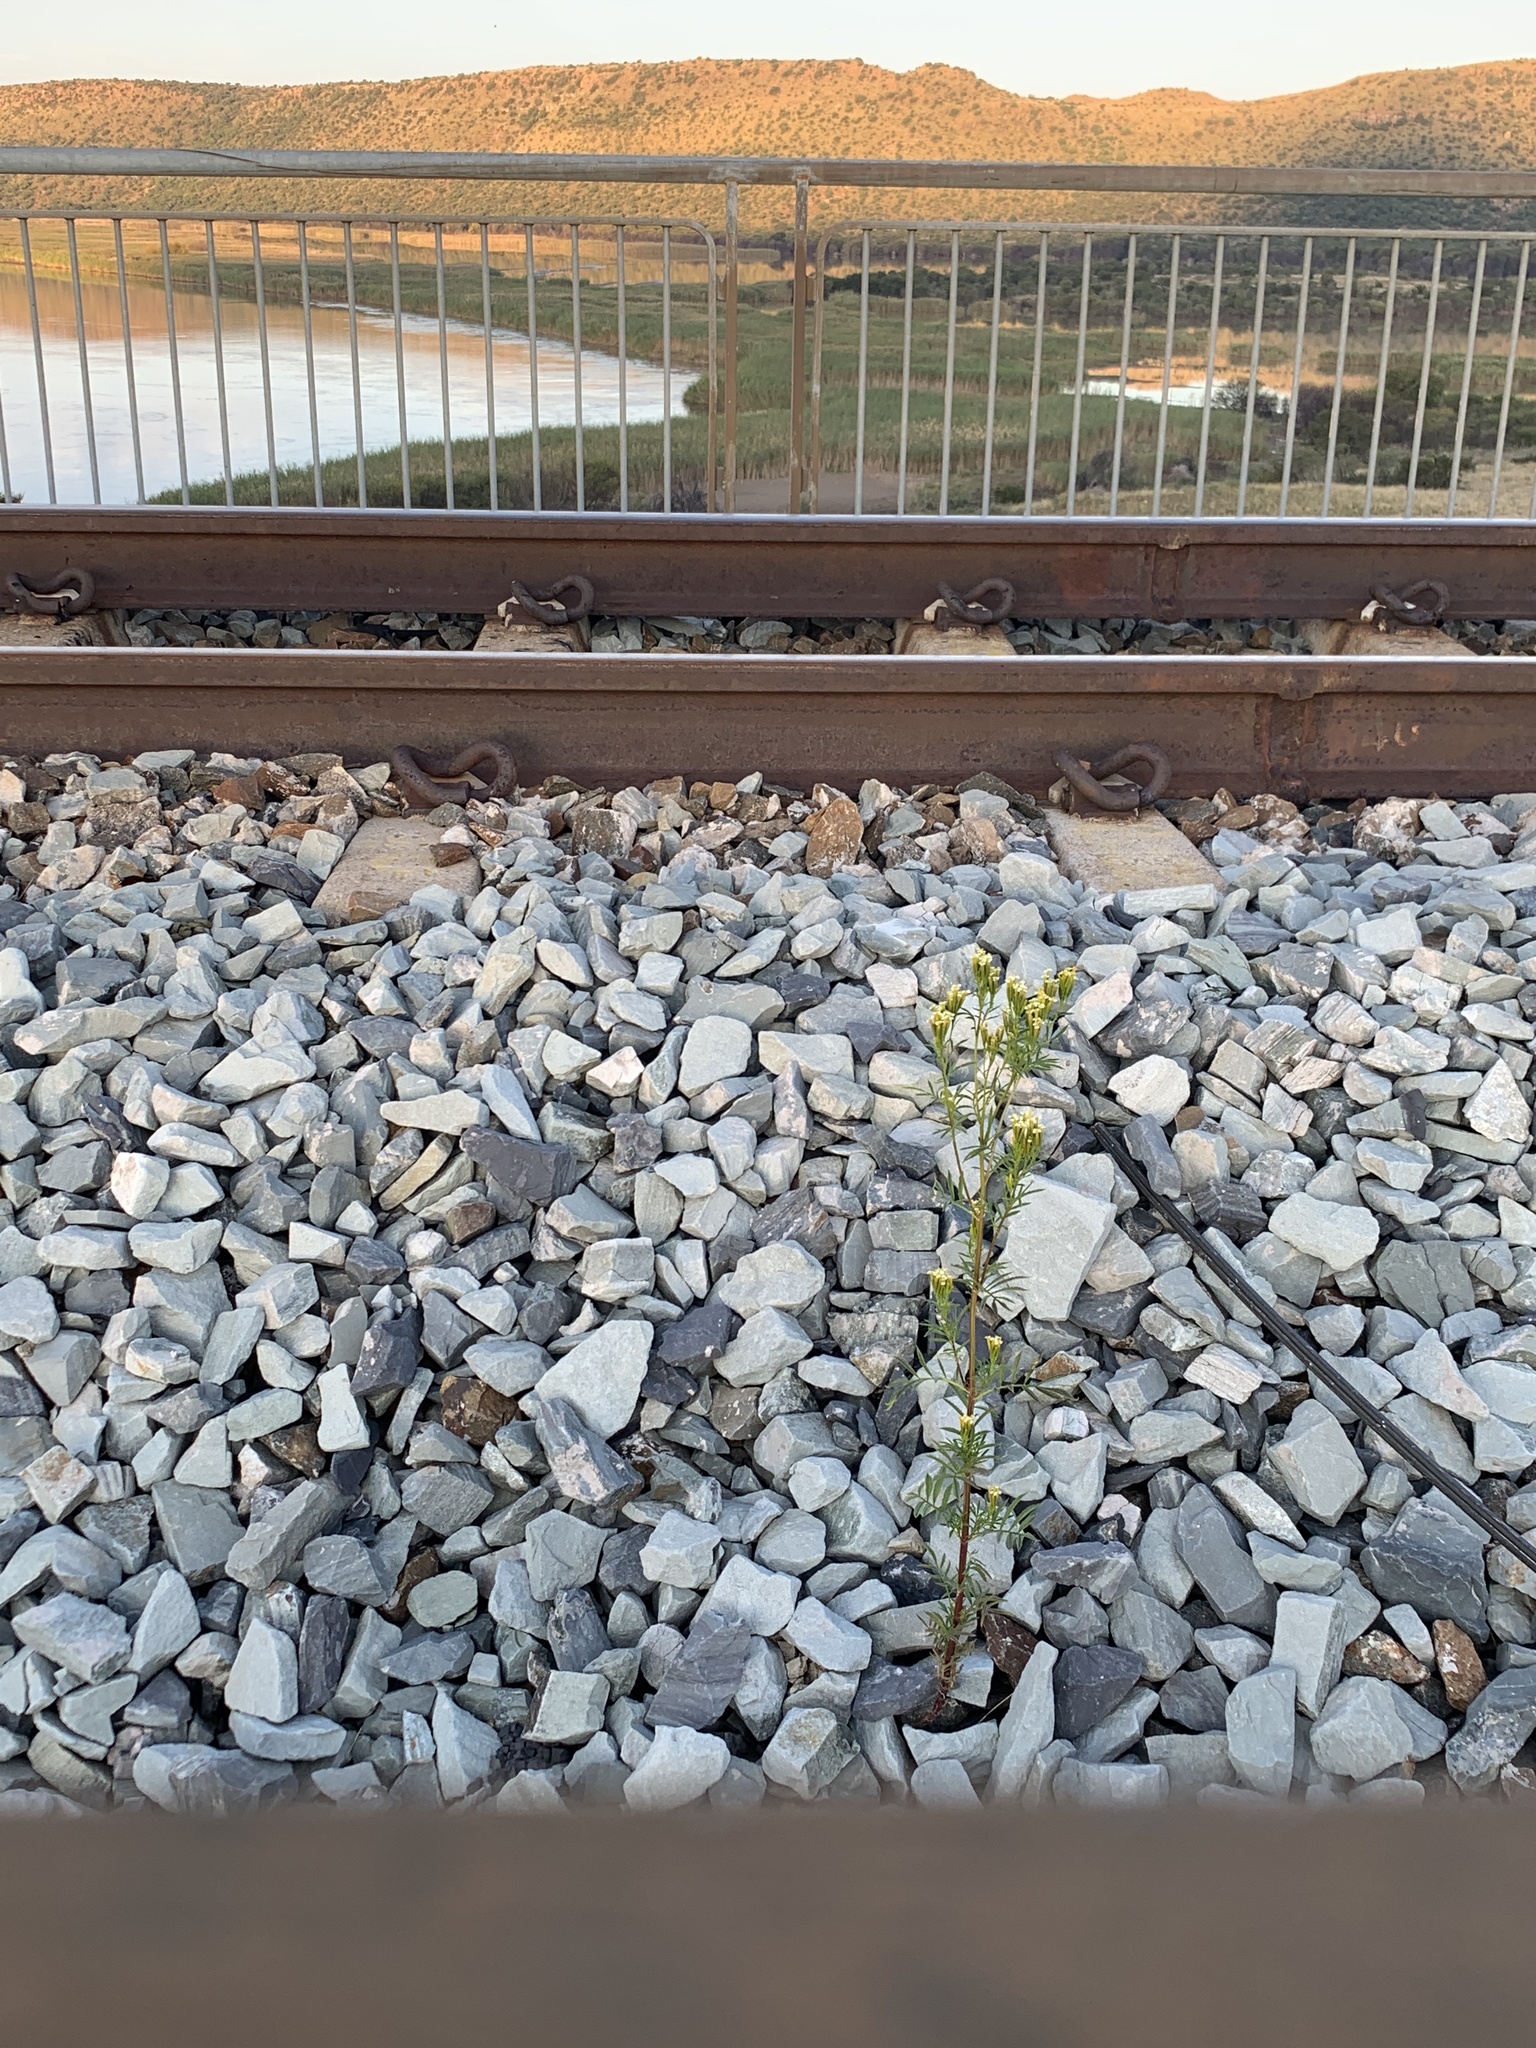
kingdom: Plantae
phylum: Tracheophyta
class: Magnoliopsida
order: Asterales
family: Asteraceae
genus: Tagetes
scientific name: Tagetes minuta
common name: Muster john henry
